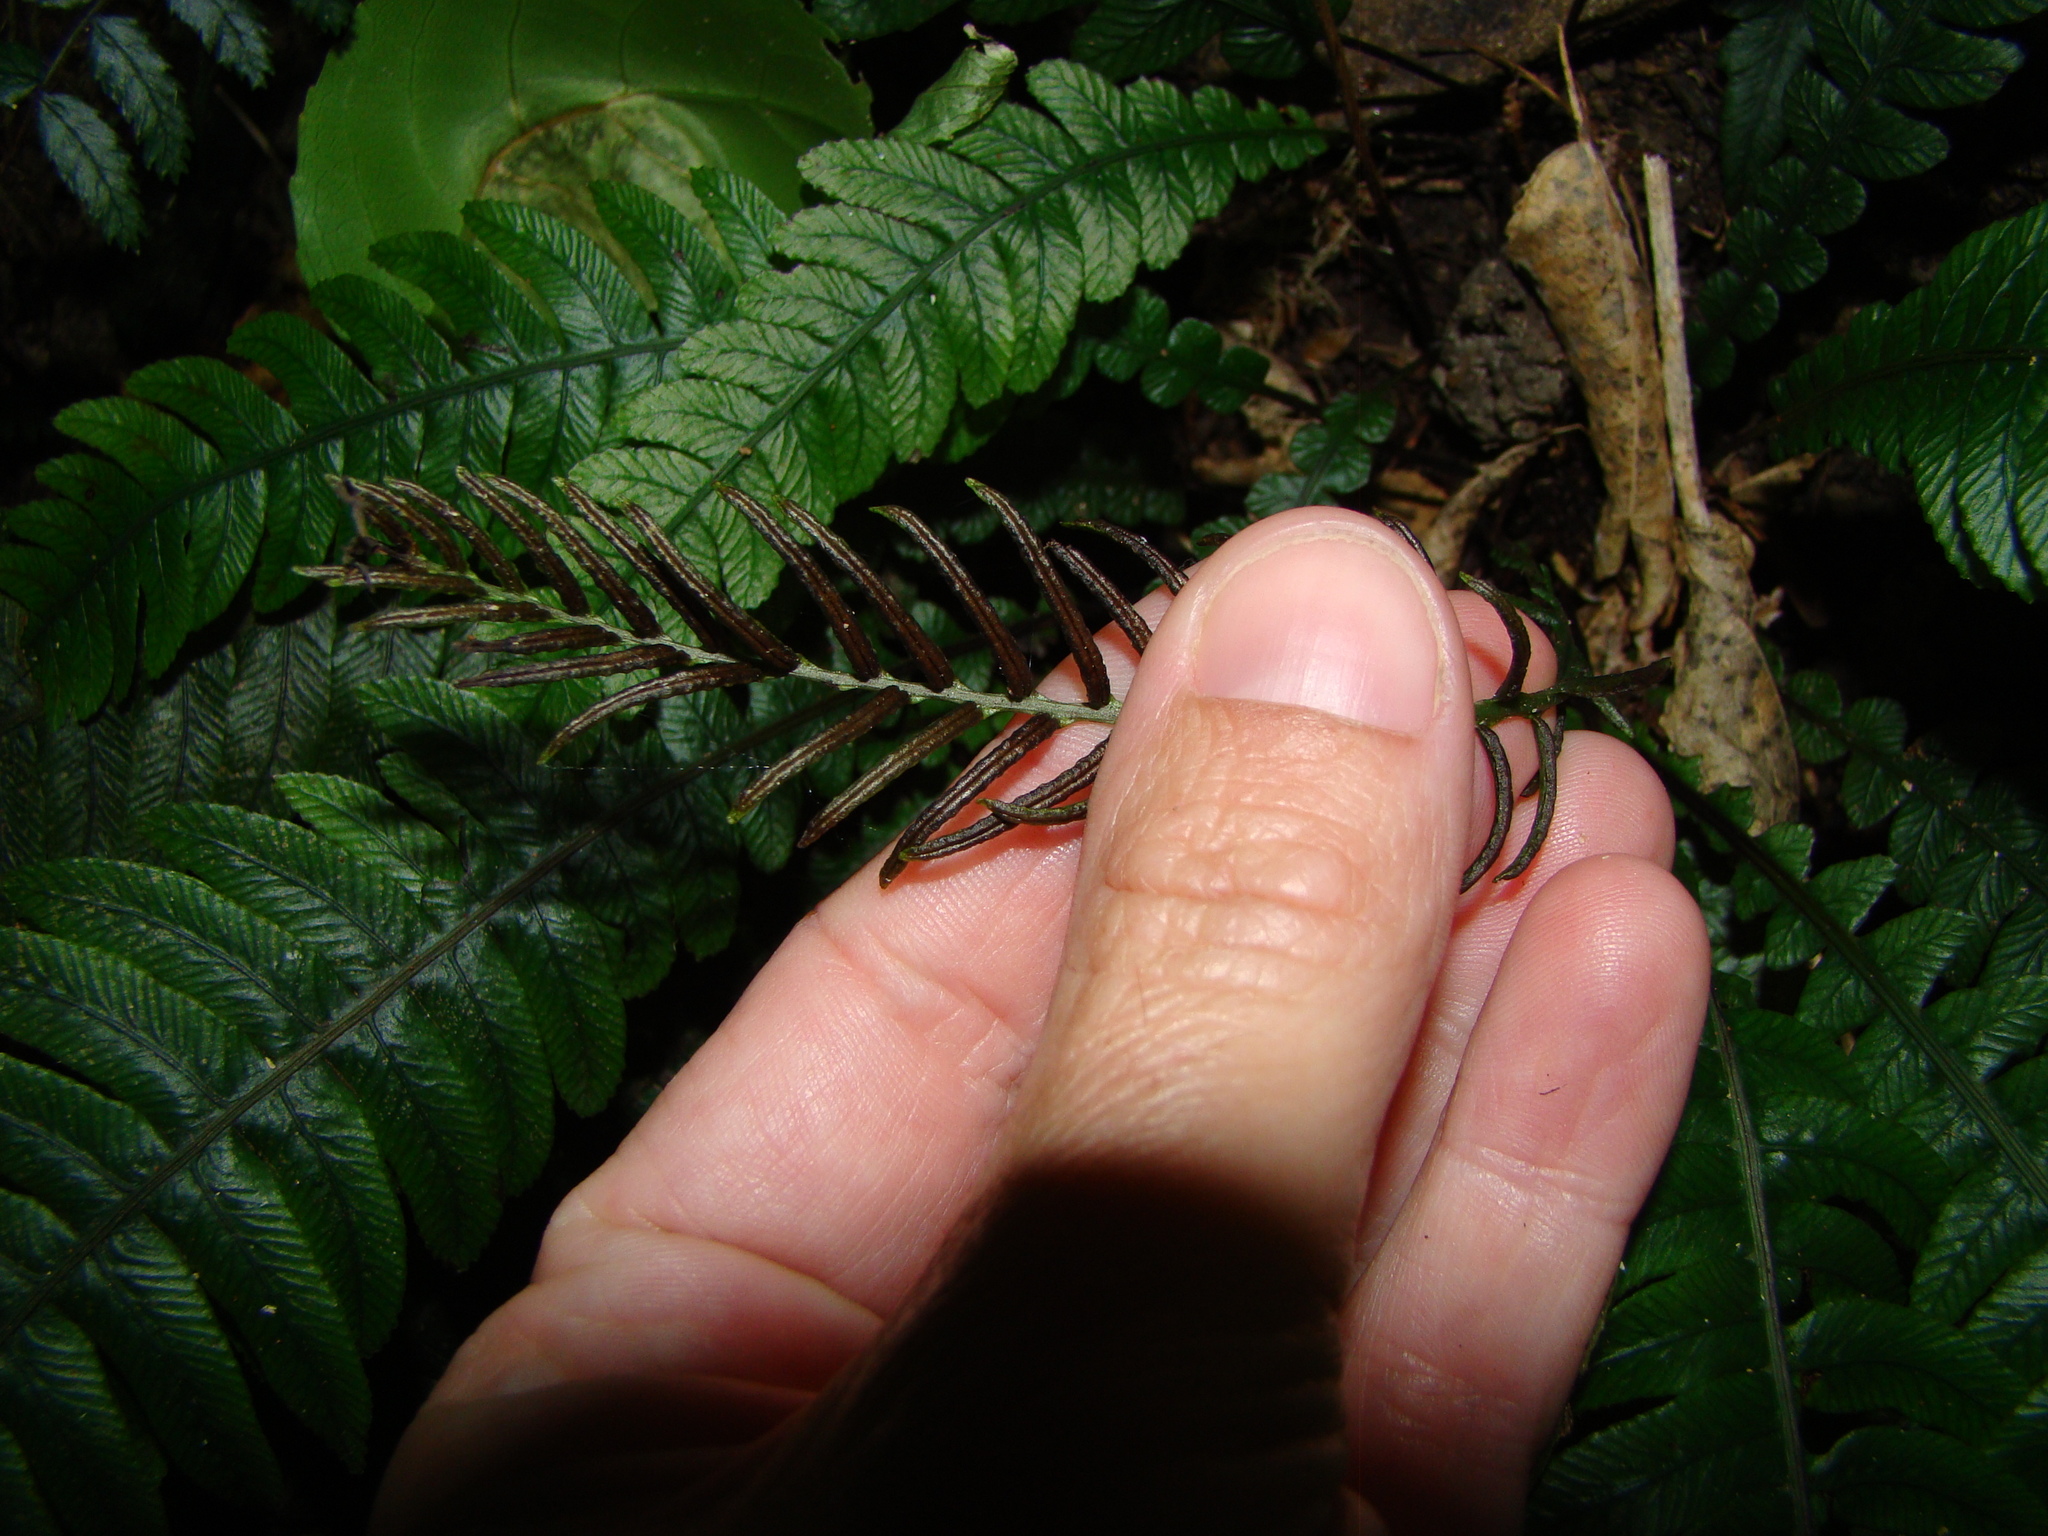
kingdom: Plantae
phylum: Tracheophyta
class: Polypodiopsida
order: Polypodiales
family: Blechnaceae
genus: Austroblechnum
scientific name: Austroblechnum lanceolatum
